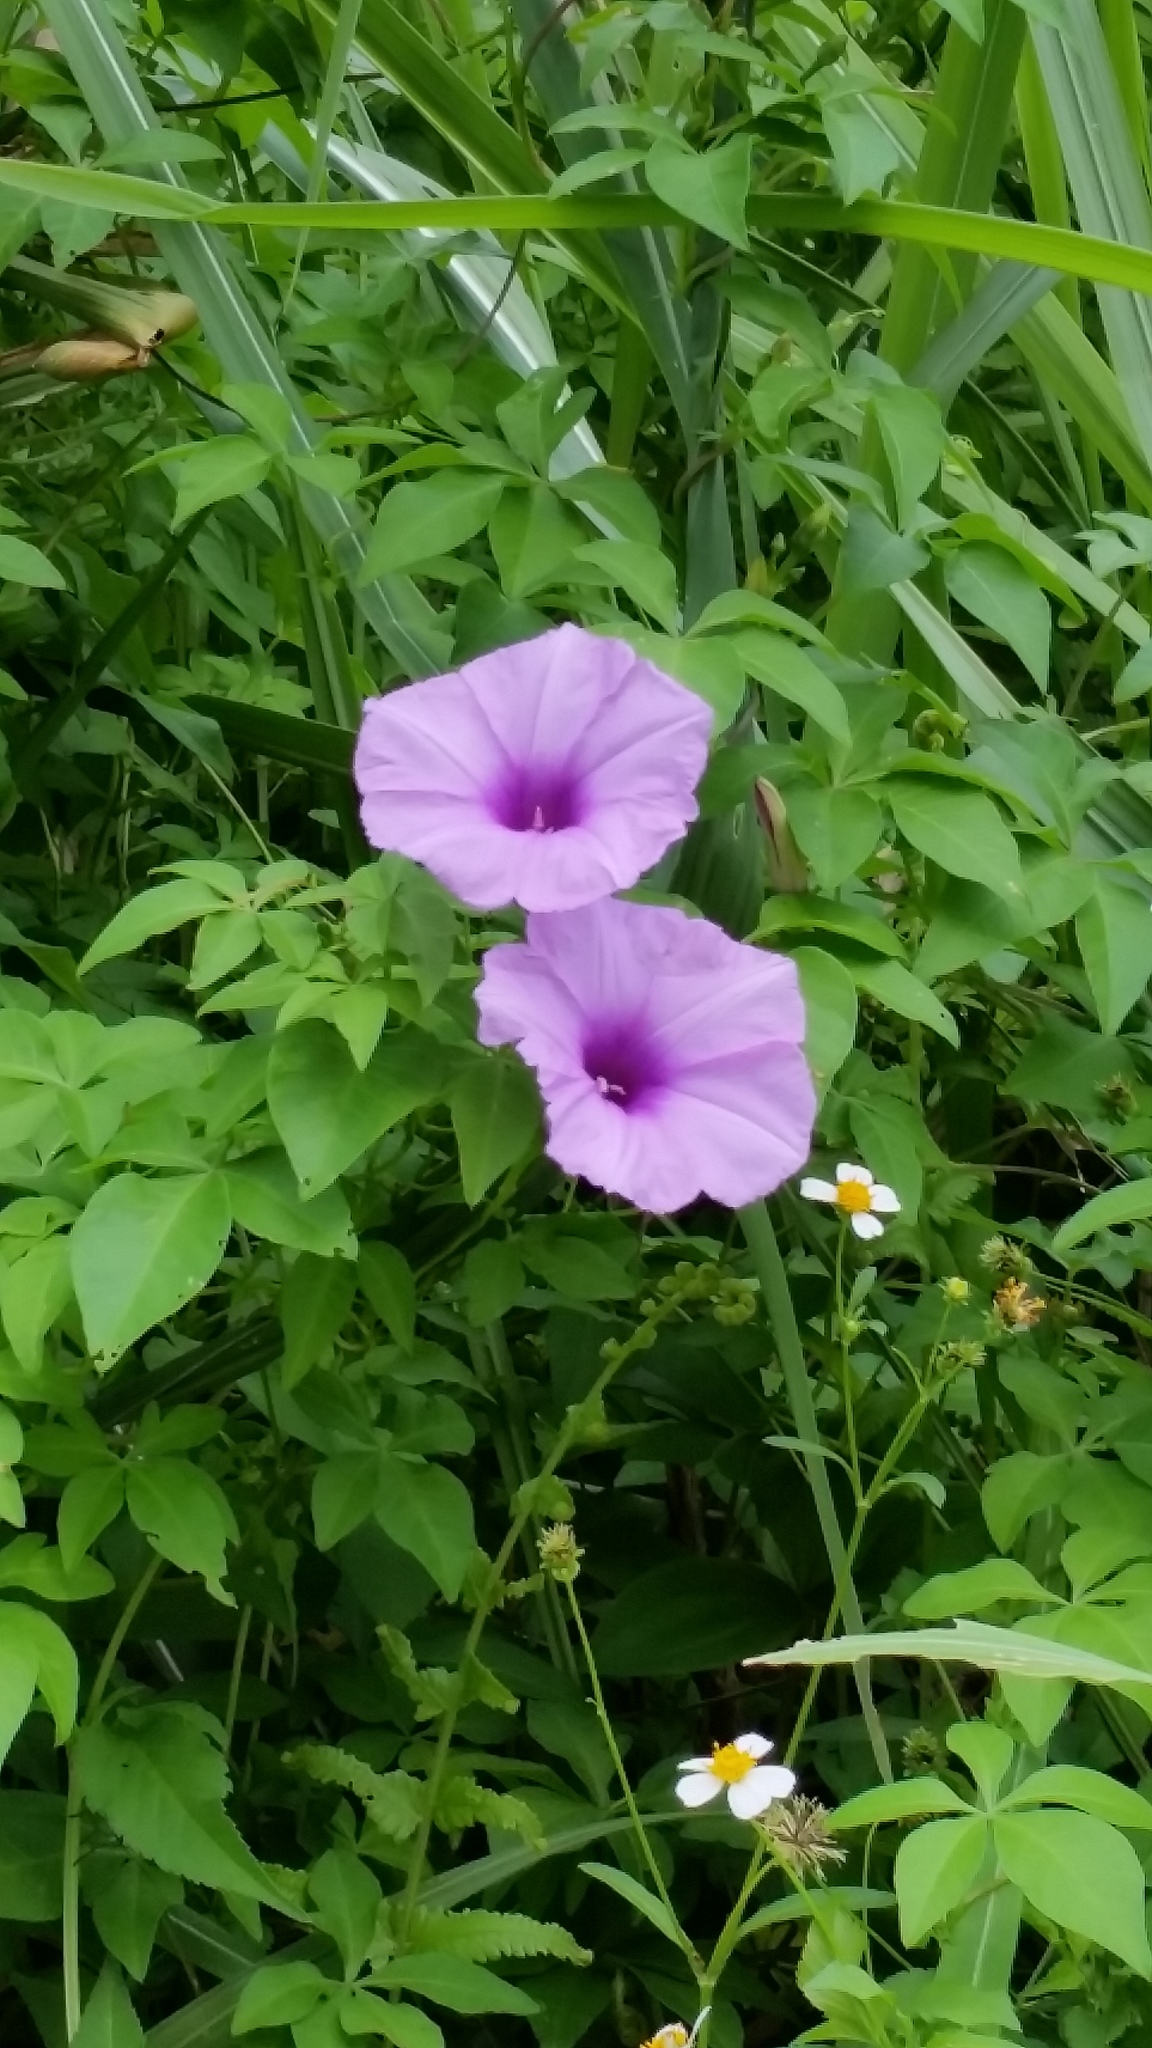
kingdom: Plantae
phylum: Tracheophyta
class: Magnoliopsida
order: Solanales
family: Convolvulaceae
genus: Ipomoea
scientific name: Ipomoea cairica
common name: Mile a minute vine
